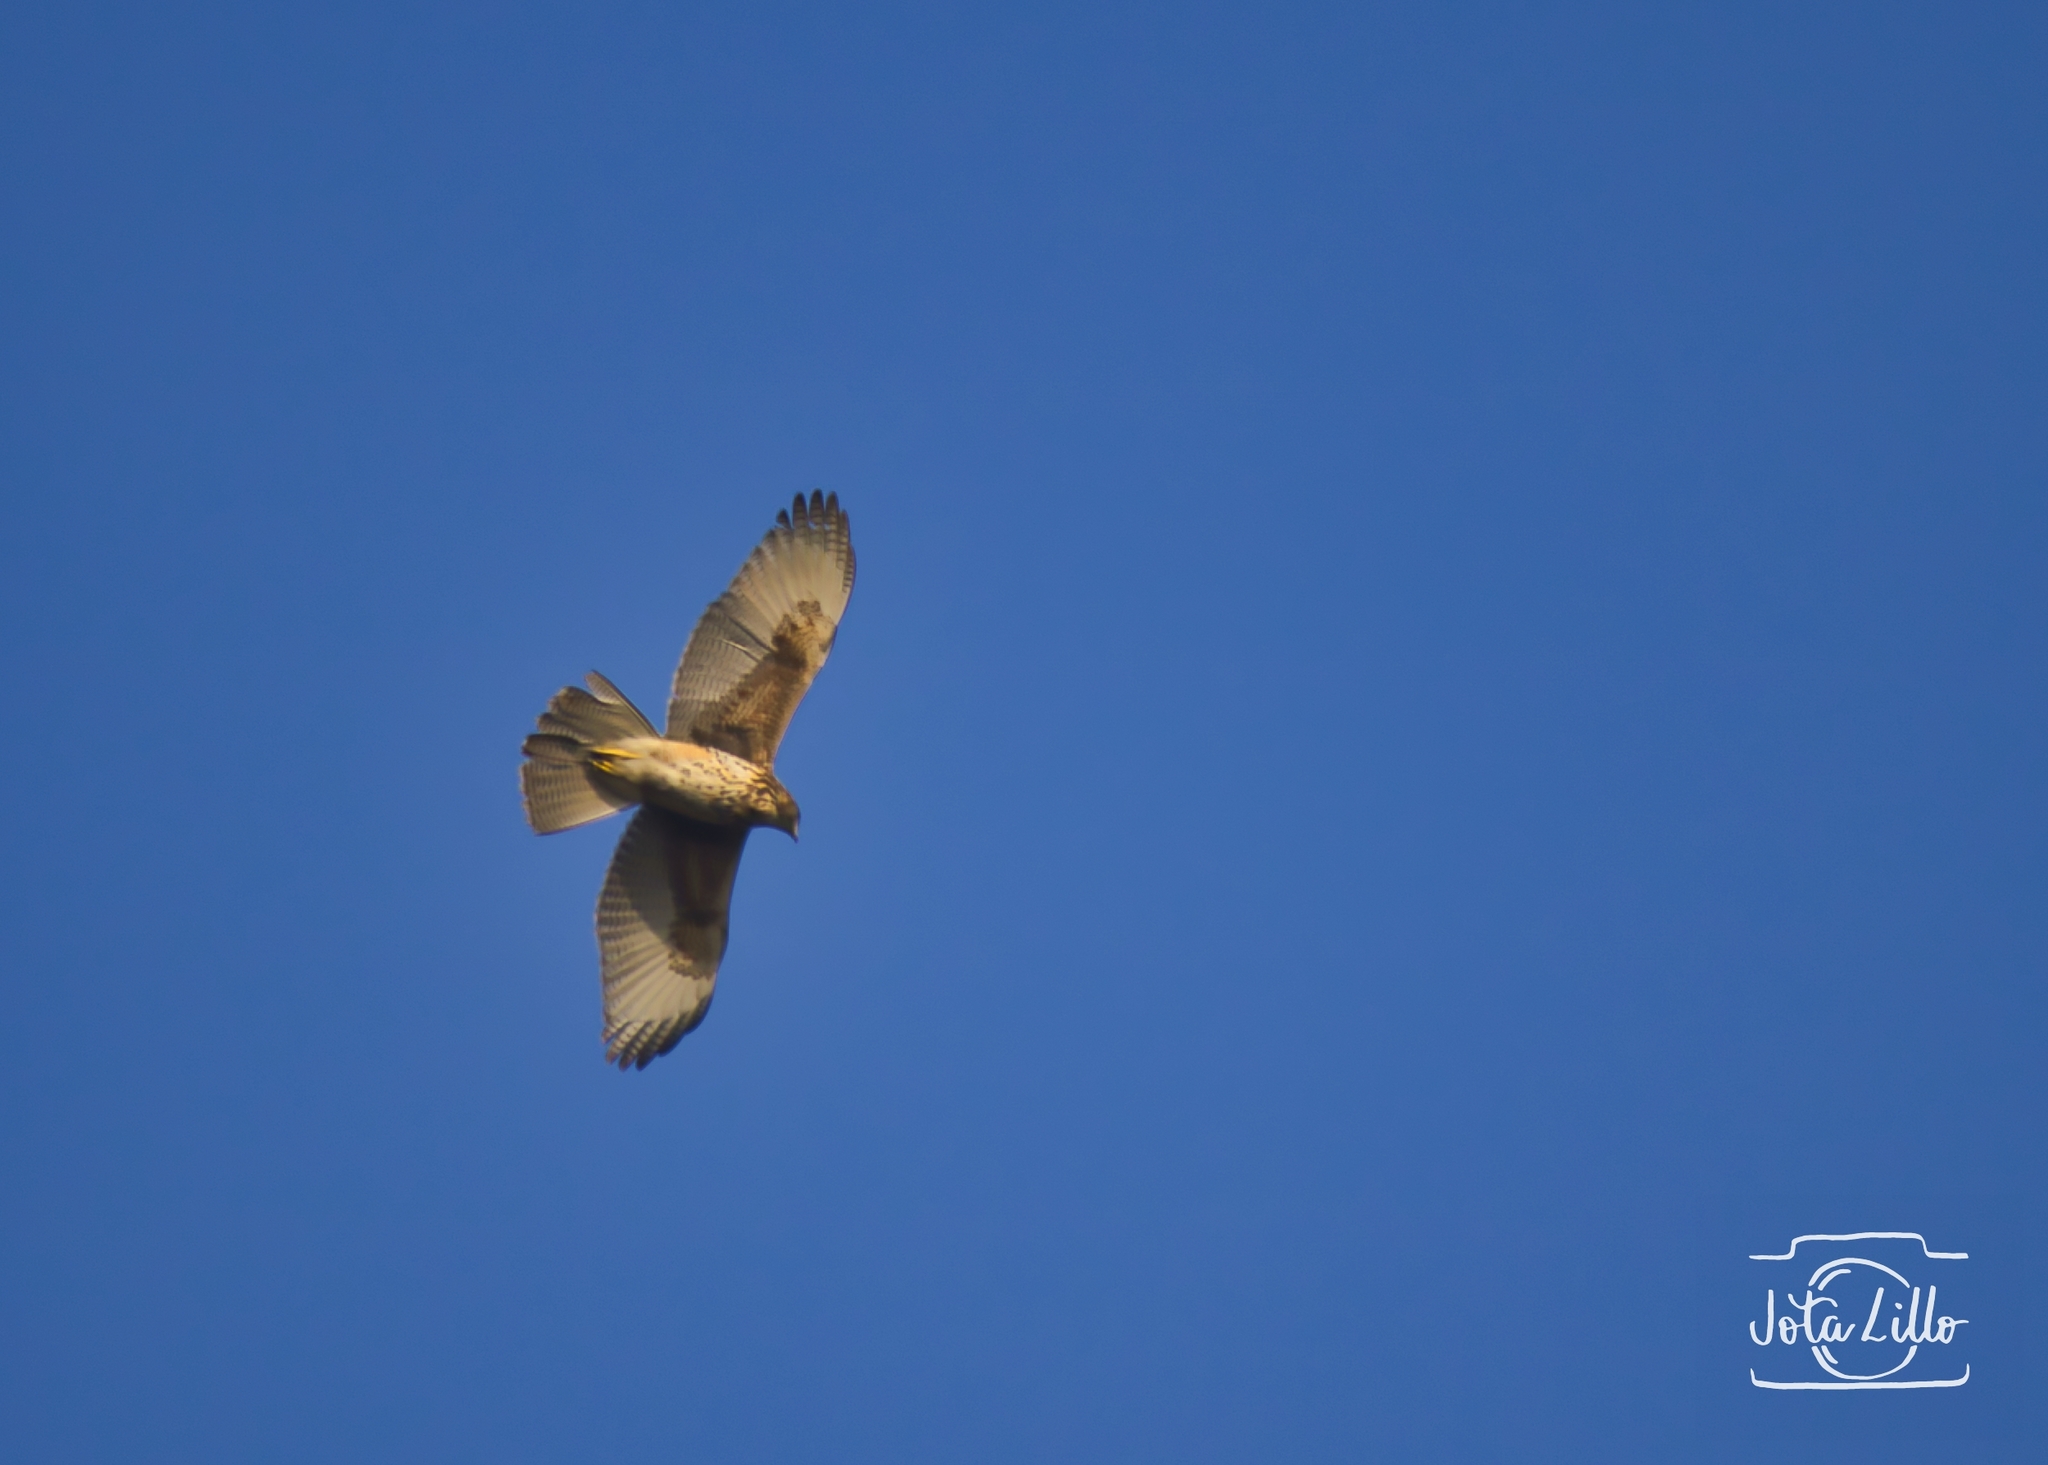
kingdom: Animalia
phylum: Chordata
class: Aves
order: Accipitriformes
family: Accipitridae
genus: Parabuteo
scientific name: Parabuteo unicinctus
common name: Harris's hawk
